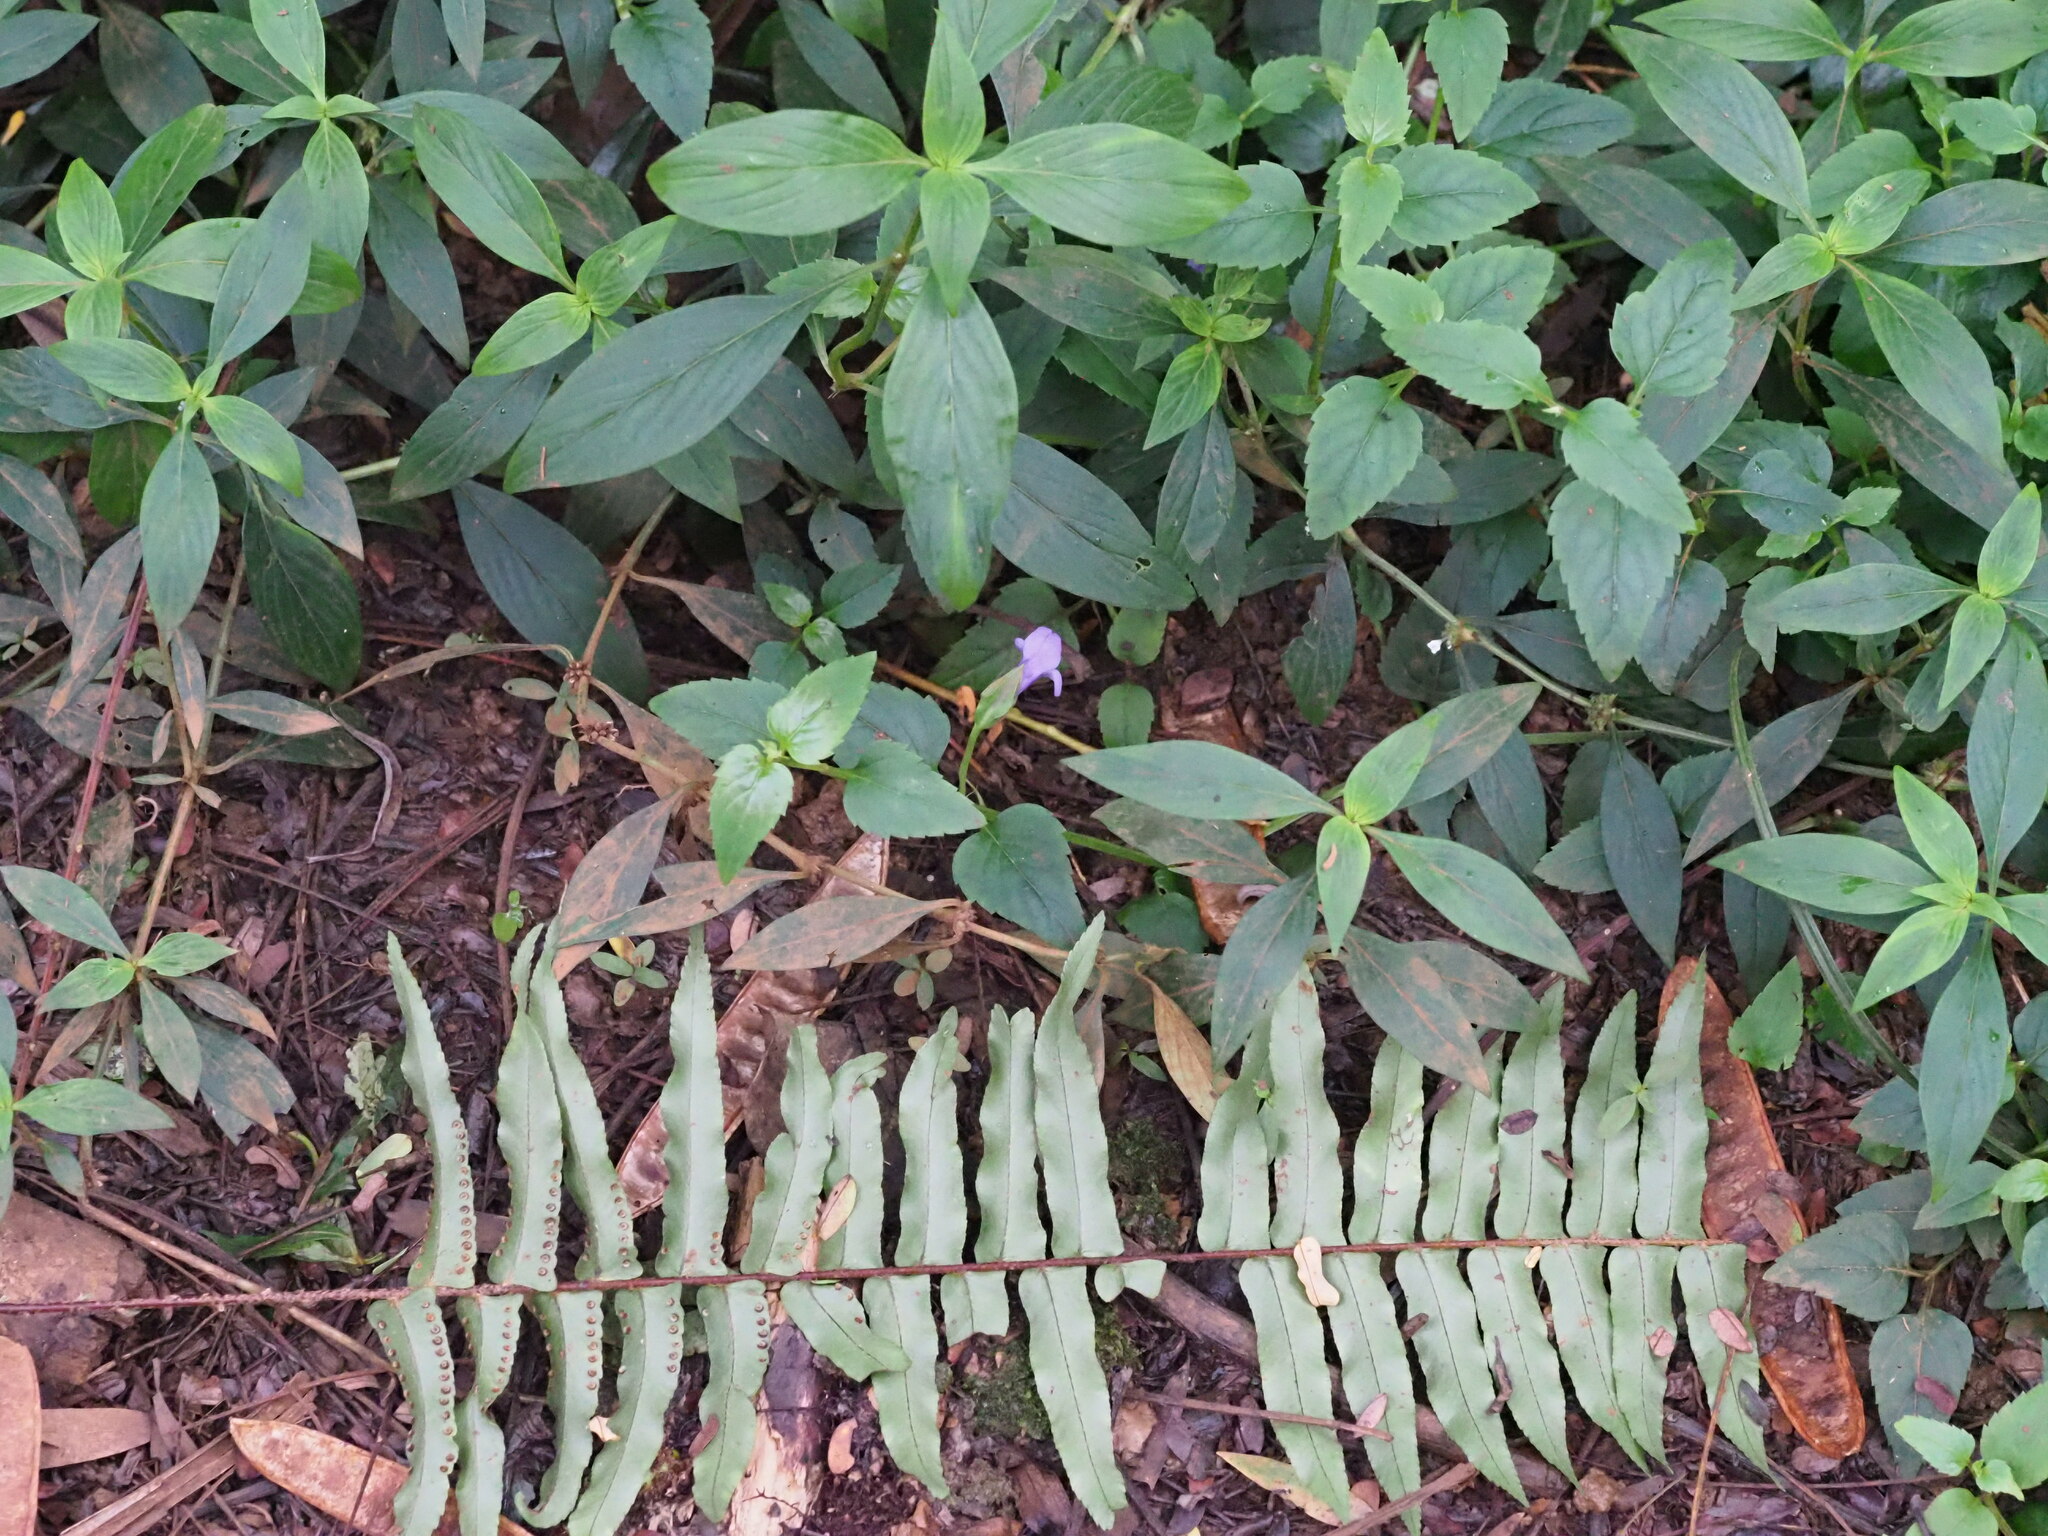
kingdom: Plantae
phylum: Tracheophyta
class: Magnoliopsida
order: Lamiales
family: Linderniaceae
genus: Torenia
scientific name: Torenia asiatica
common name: Wishbone flower
